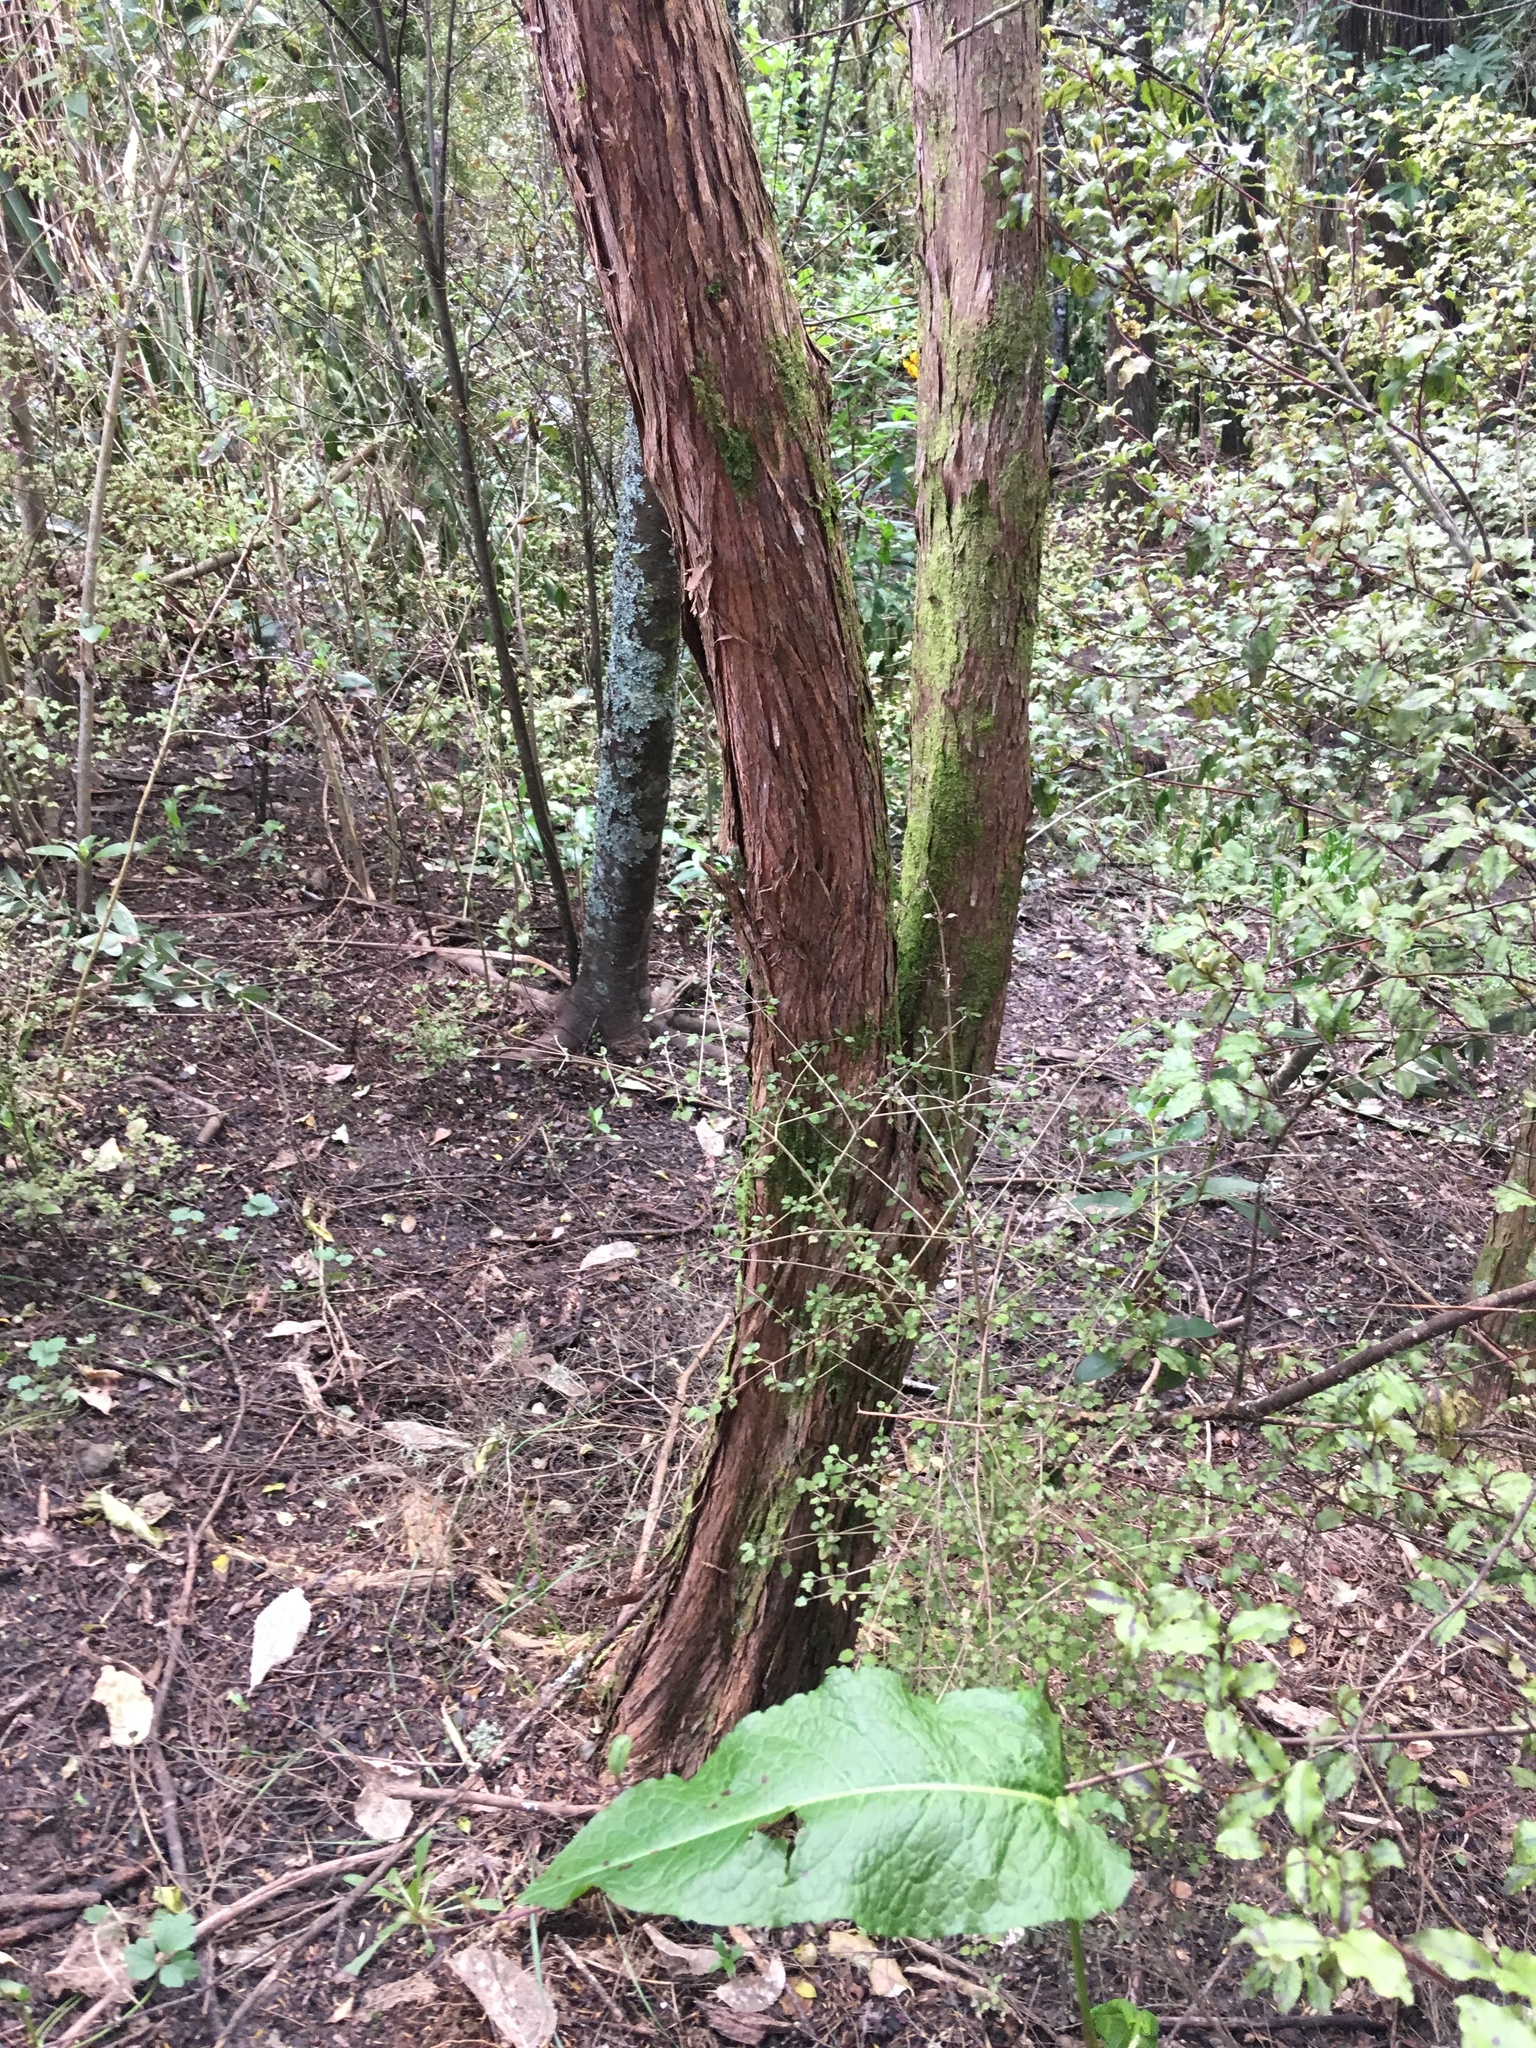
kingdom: Plantae
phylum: Tracheophyta
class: Magnoliopsida
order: Gentianales
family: Rubiaceae
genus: Coprosma
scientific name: Coprosma areolata
